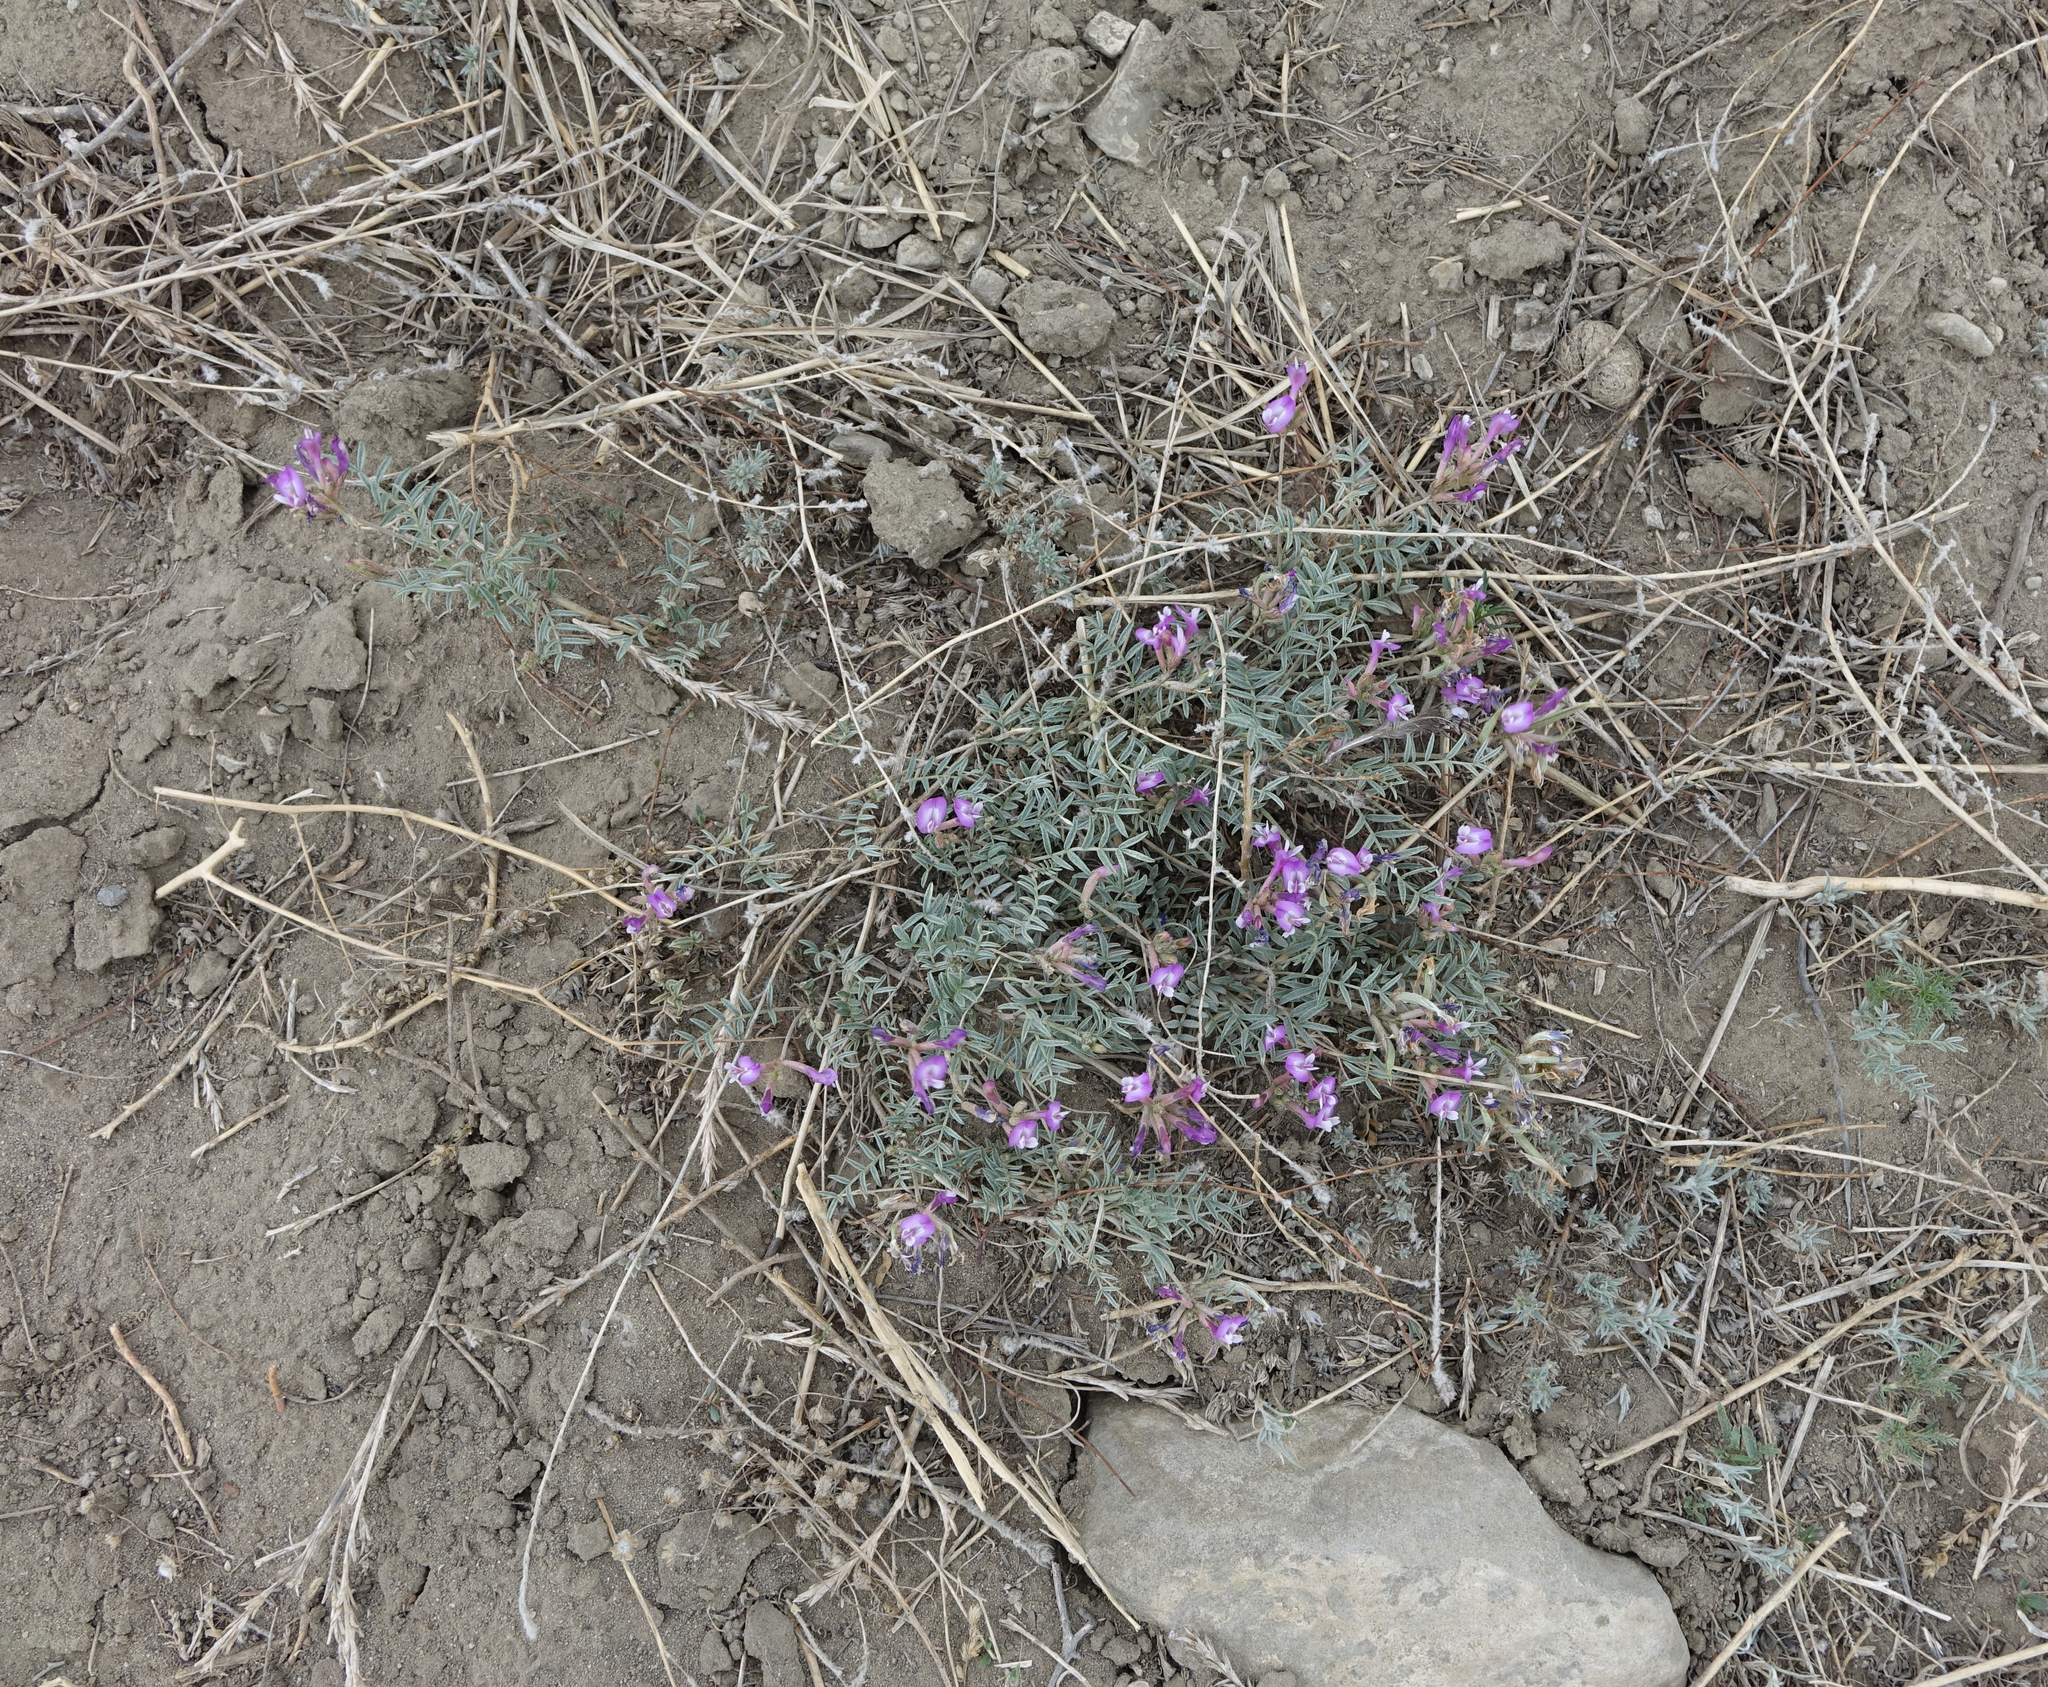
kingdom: Plantae
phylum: Tracheophyta
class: Magnoliopsida
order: Fabales
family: Fabaceae
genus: Astragalus
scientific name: Astragalus stenoceras
